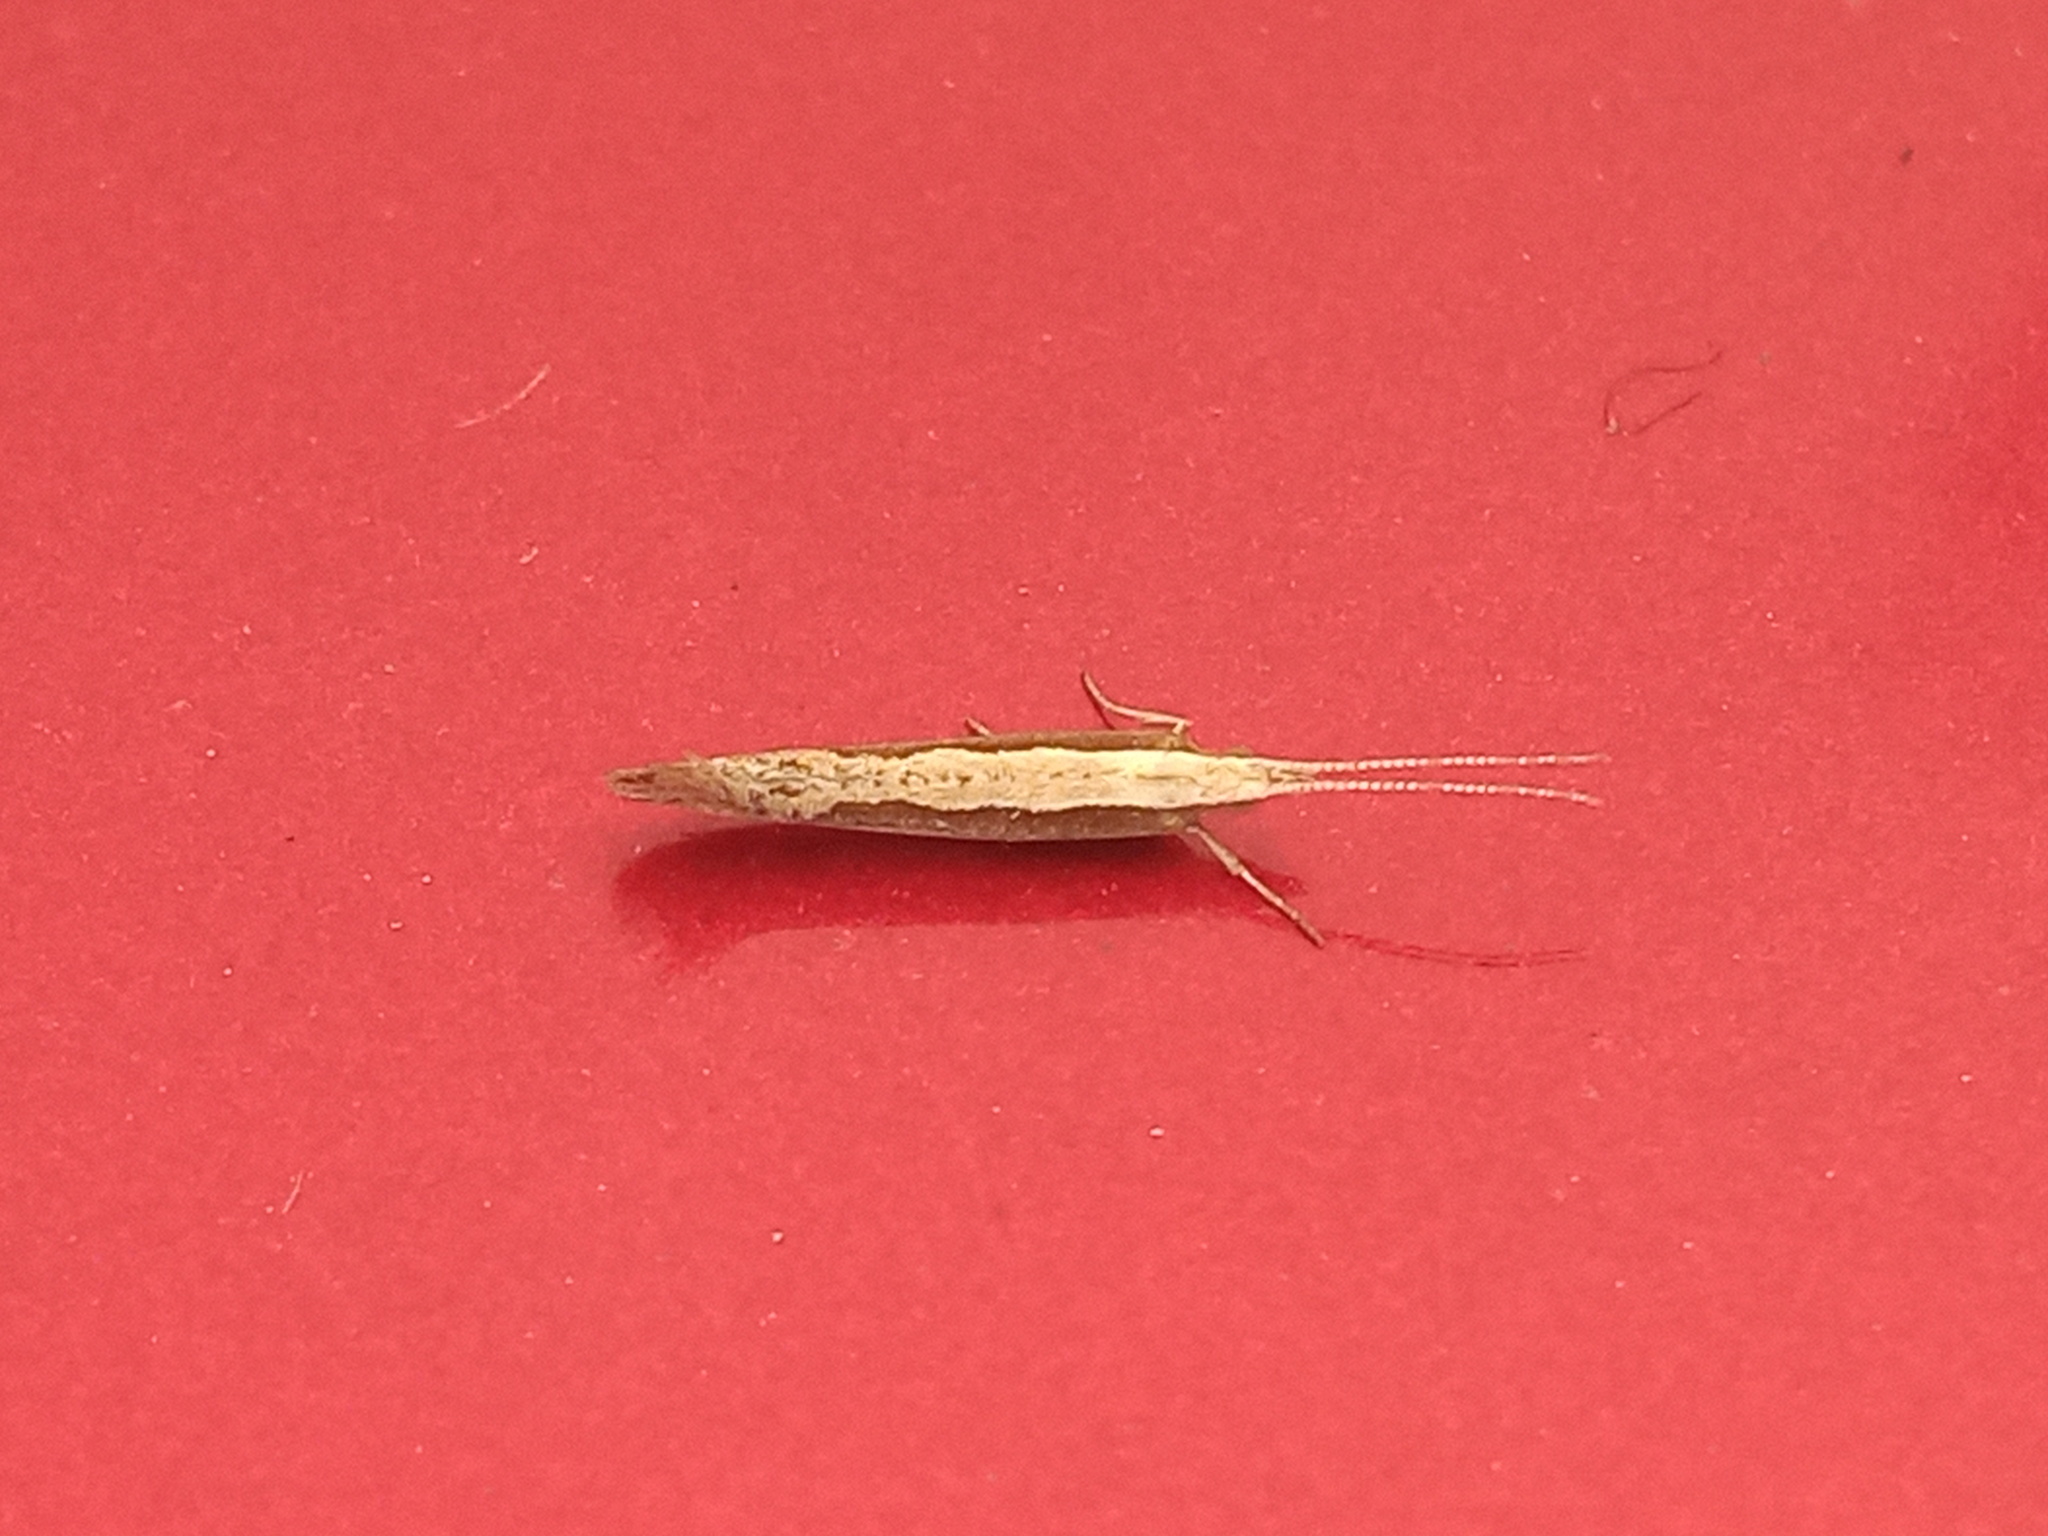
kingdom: Animalia
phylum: Arthropoda
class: Insecta
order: Lepidoptera
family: Plutellidae
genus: Plutella
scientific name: Plutella xylostella
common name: Diamond-back moth
